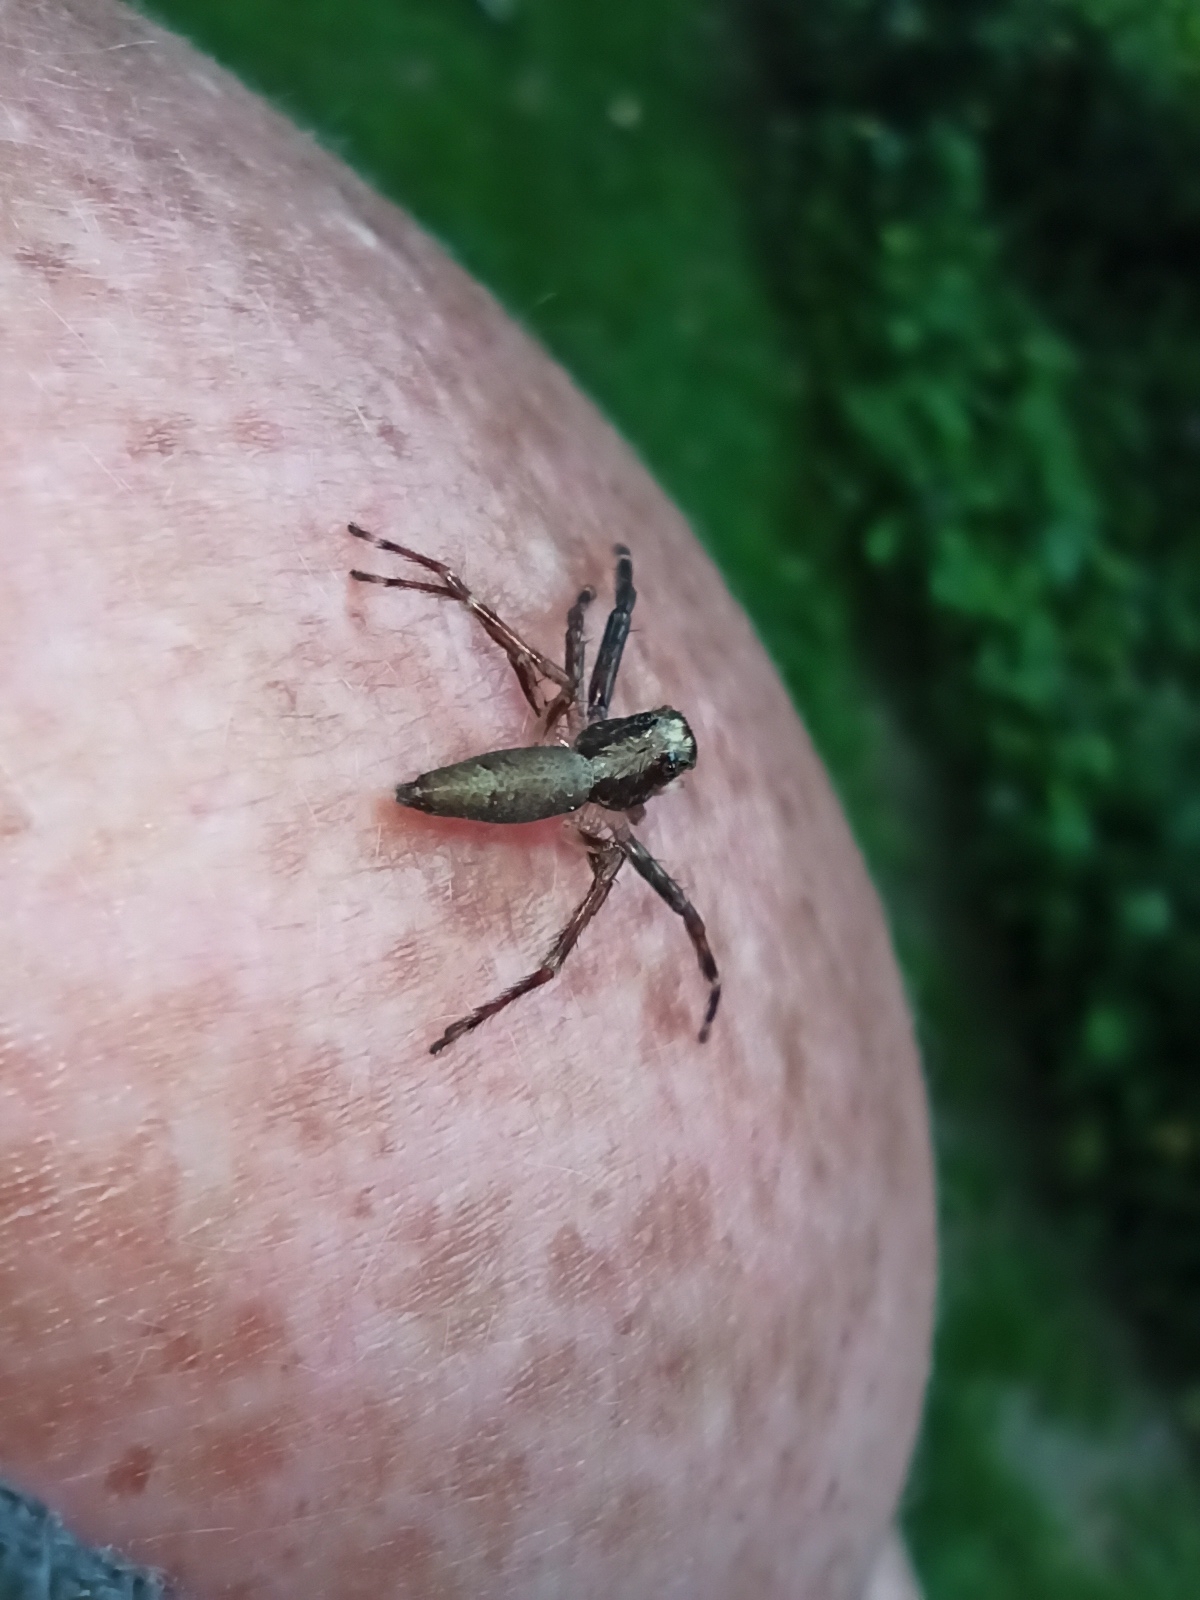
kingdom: Animalia
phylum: Arthropoda
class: Arachnida
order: Araneae
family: Salticidae
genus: Helpis
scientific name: Helpis minitabunda
